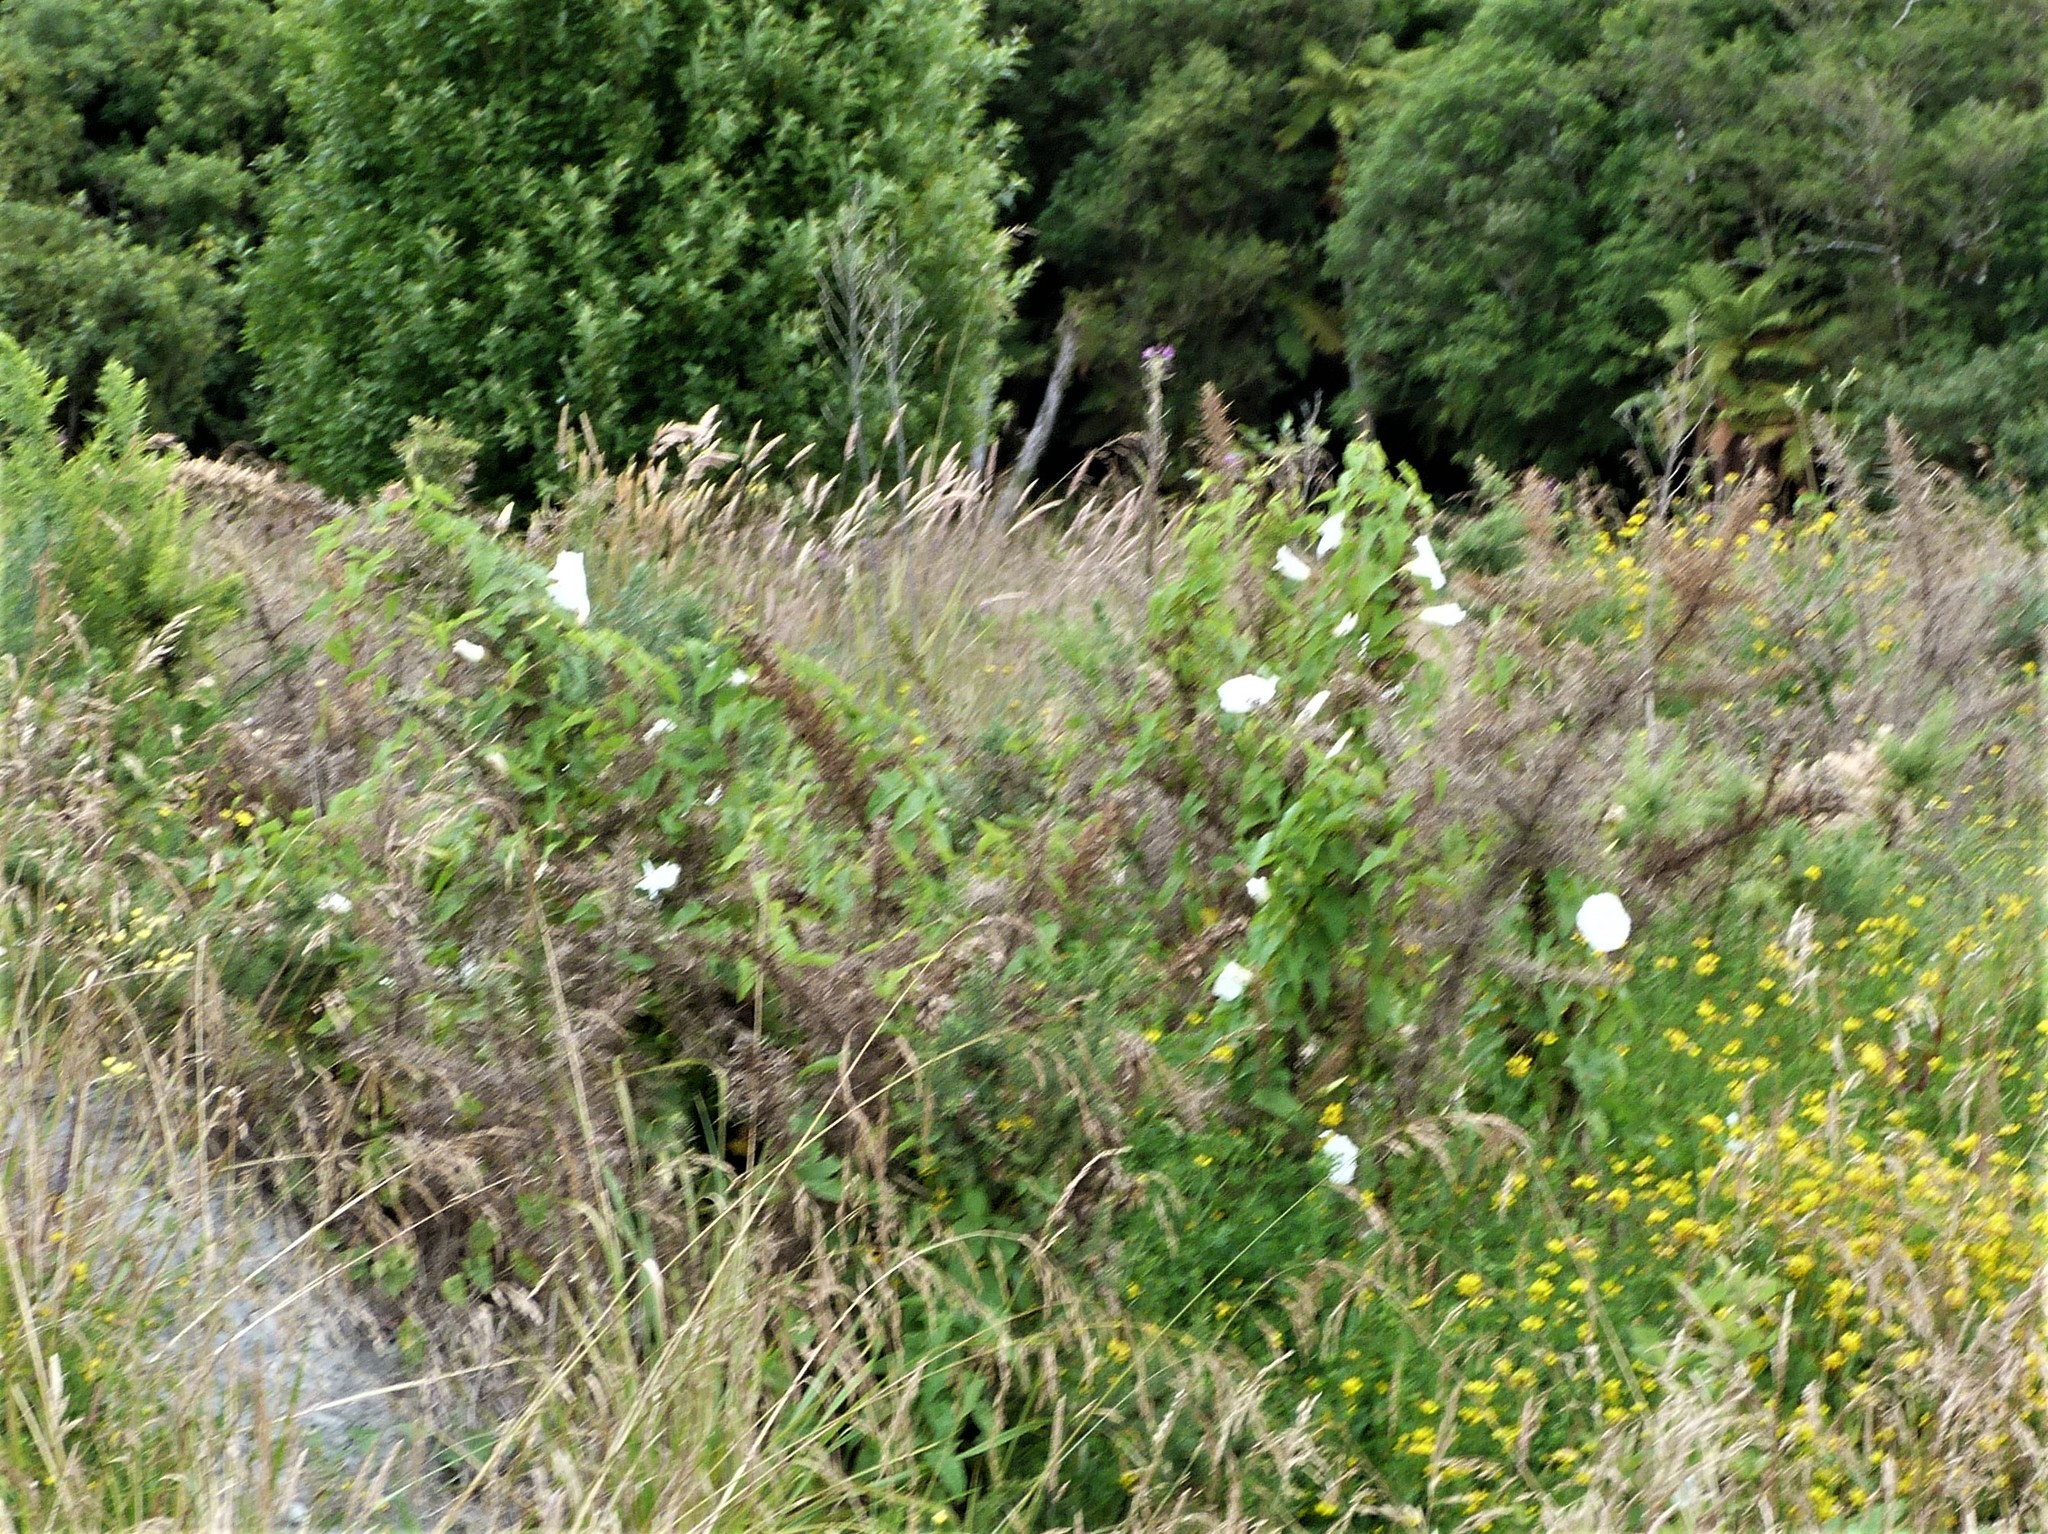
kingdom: Plantae
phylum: Tracheophyta
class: Magnoliopsida
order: Solanales
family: Convolvulaceae
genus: Calystegia
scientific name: Calystegia silvatica
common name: Large bindweed
